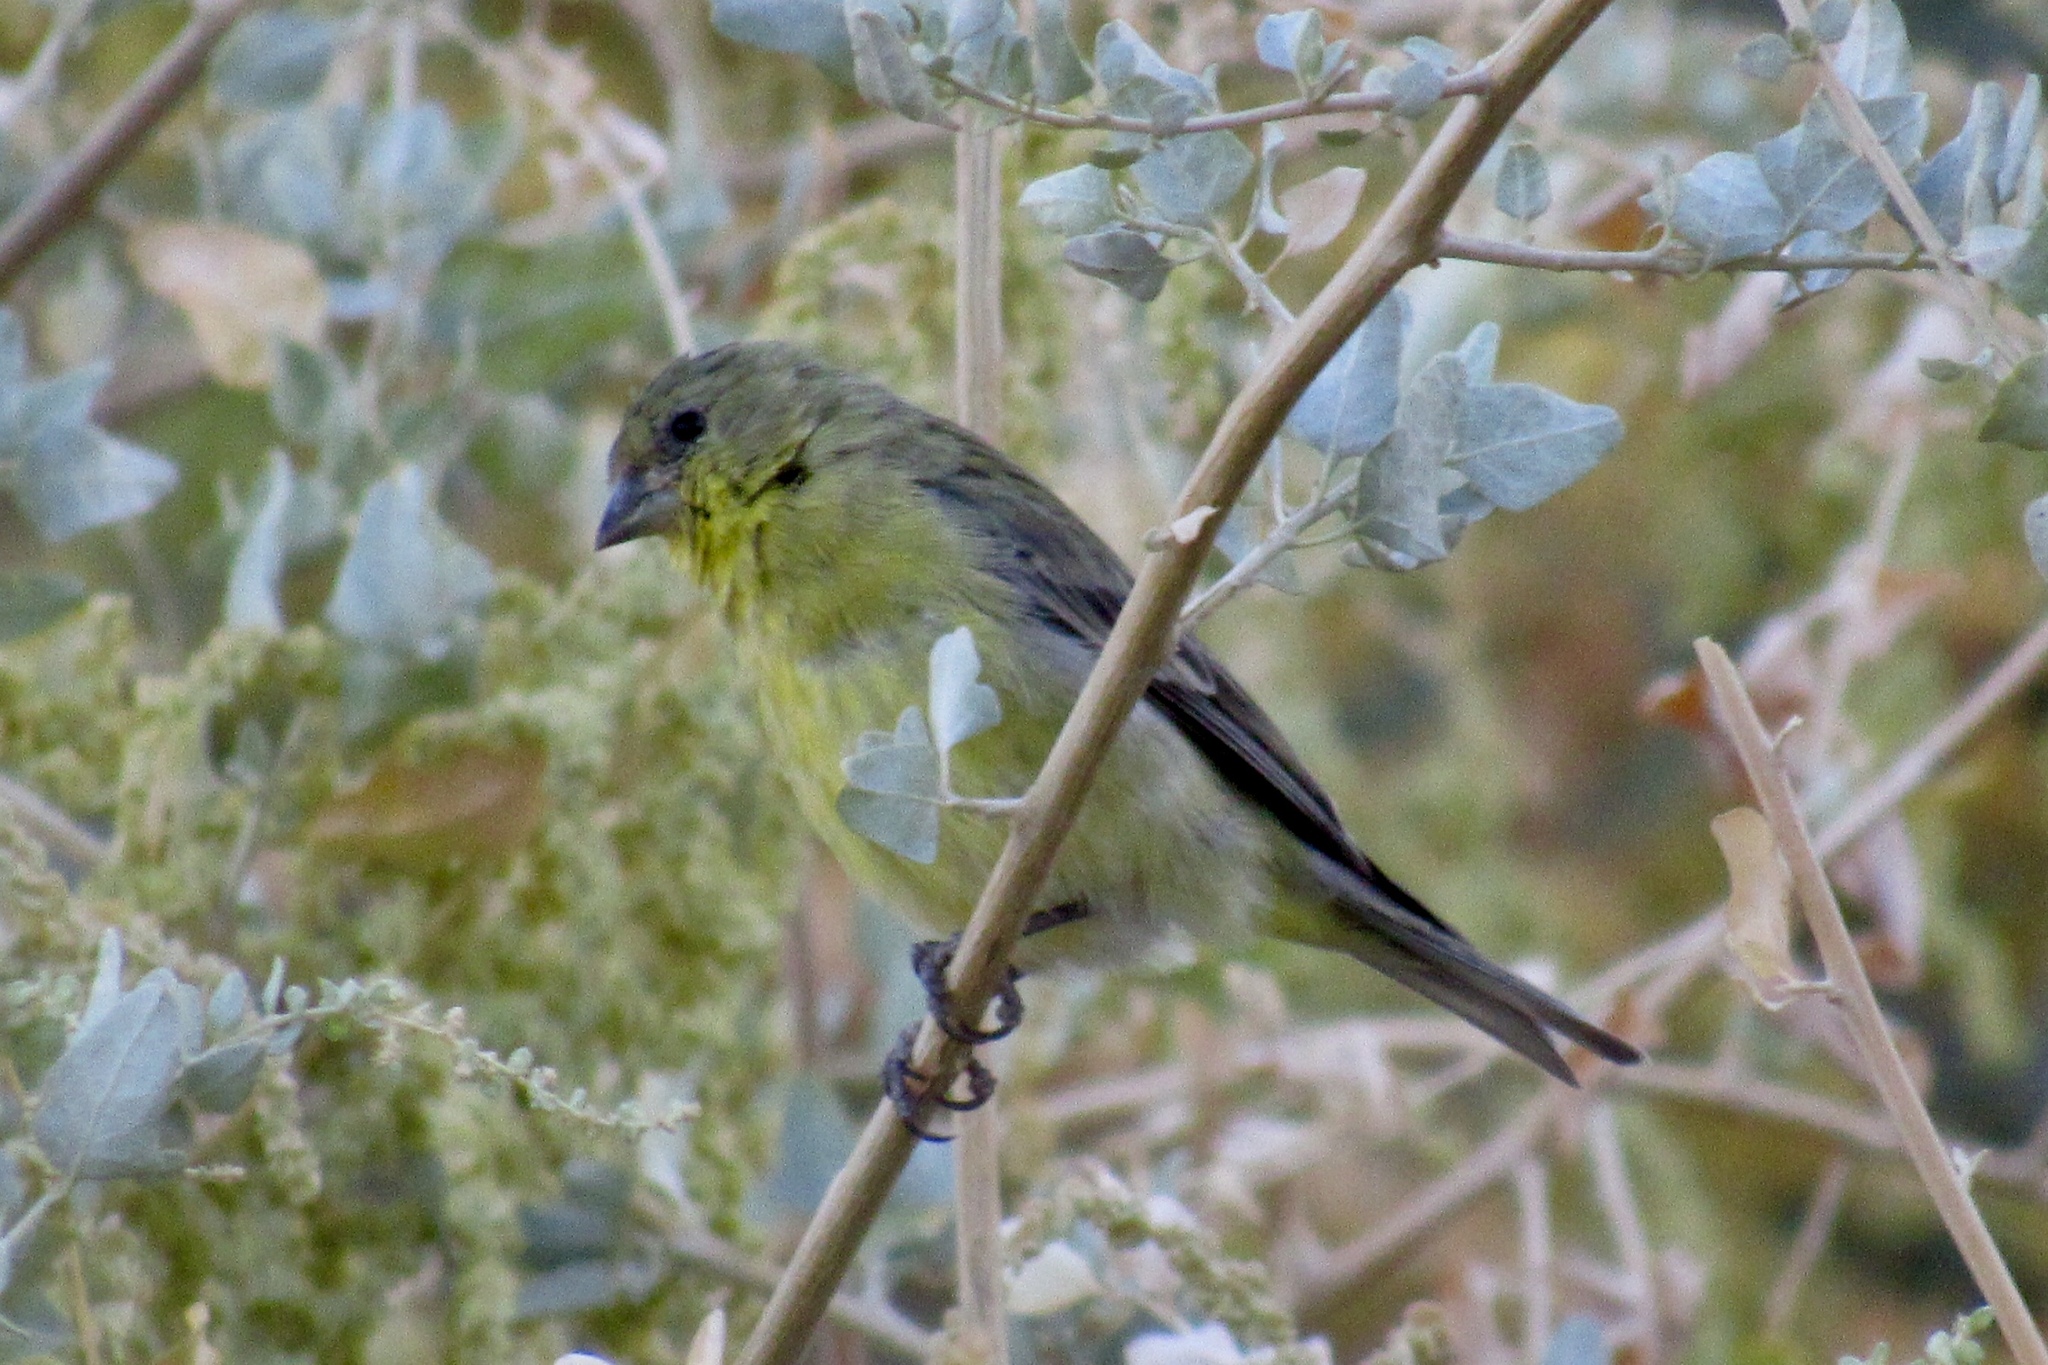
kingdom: Animalia
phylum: Chordata
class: Aves
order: Passeriformes
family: Fringillidae
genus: Spinus
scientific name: Spinus psaltria
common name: Lesser goldfinch
